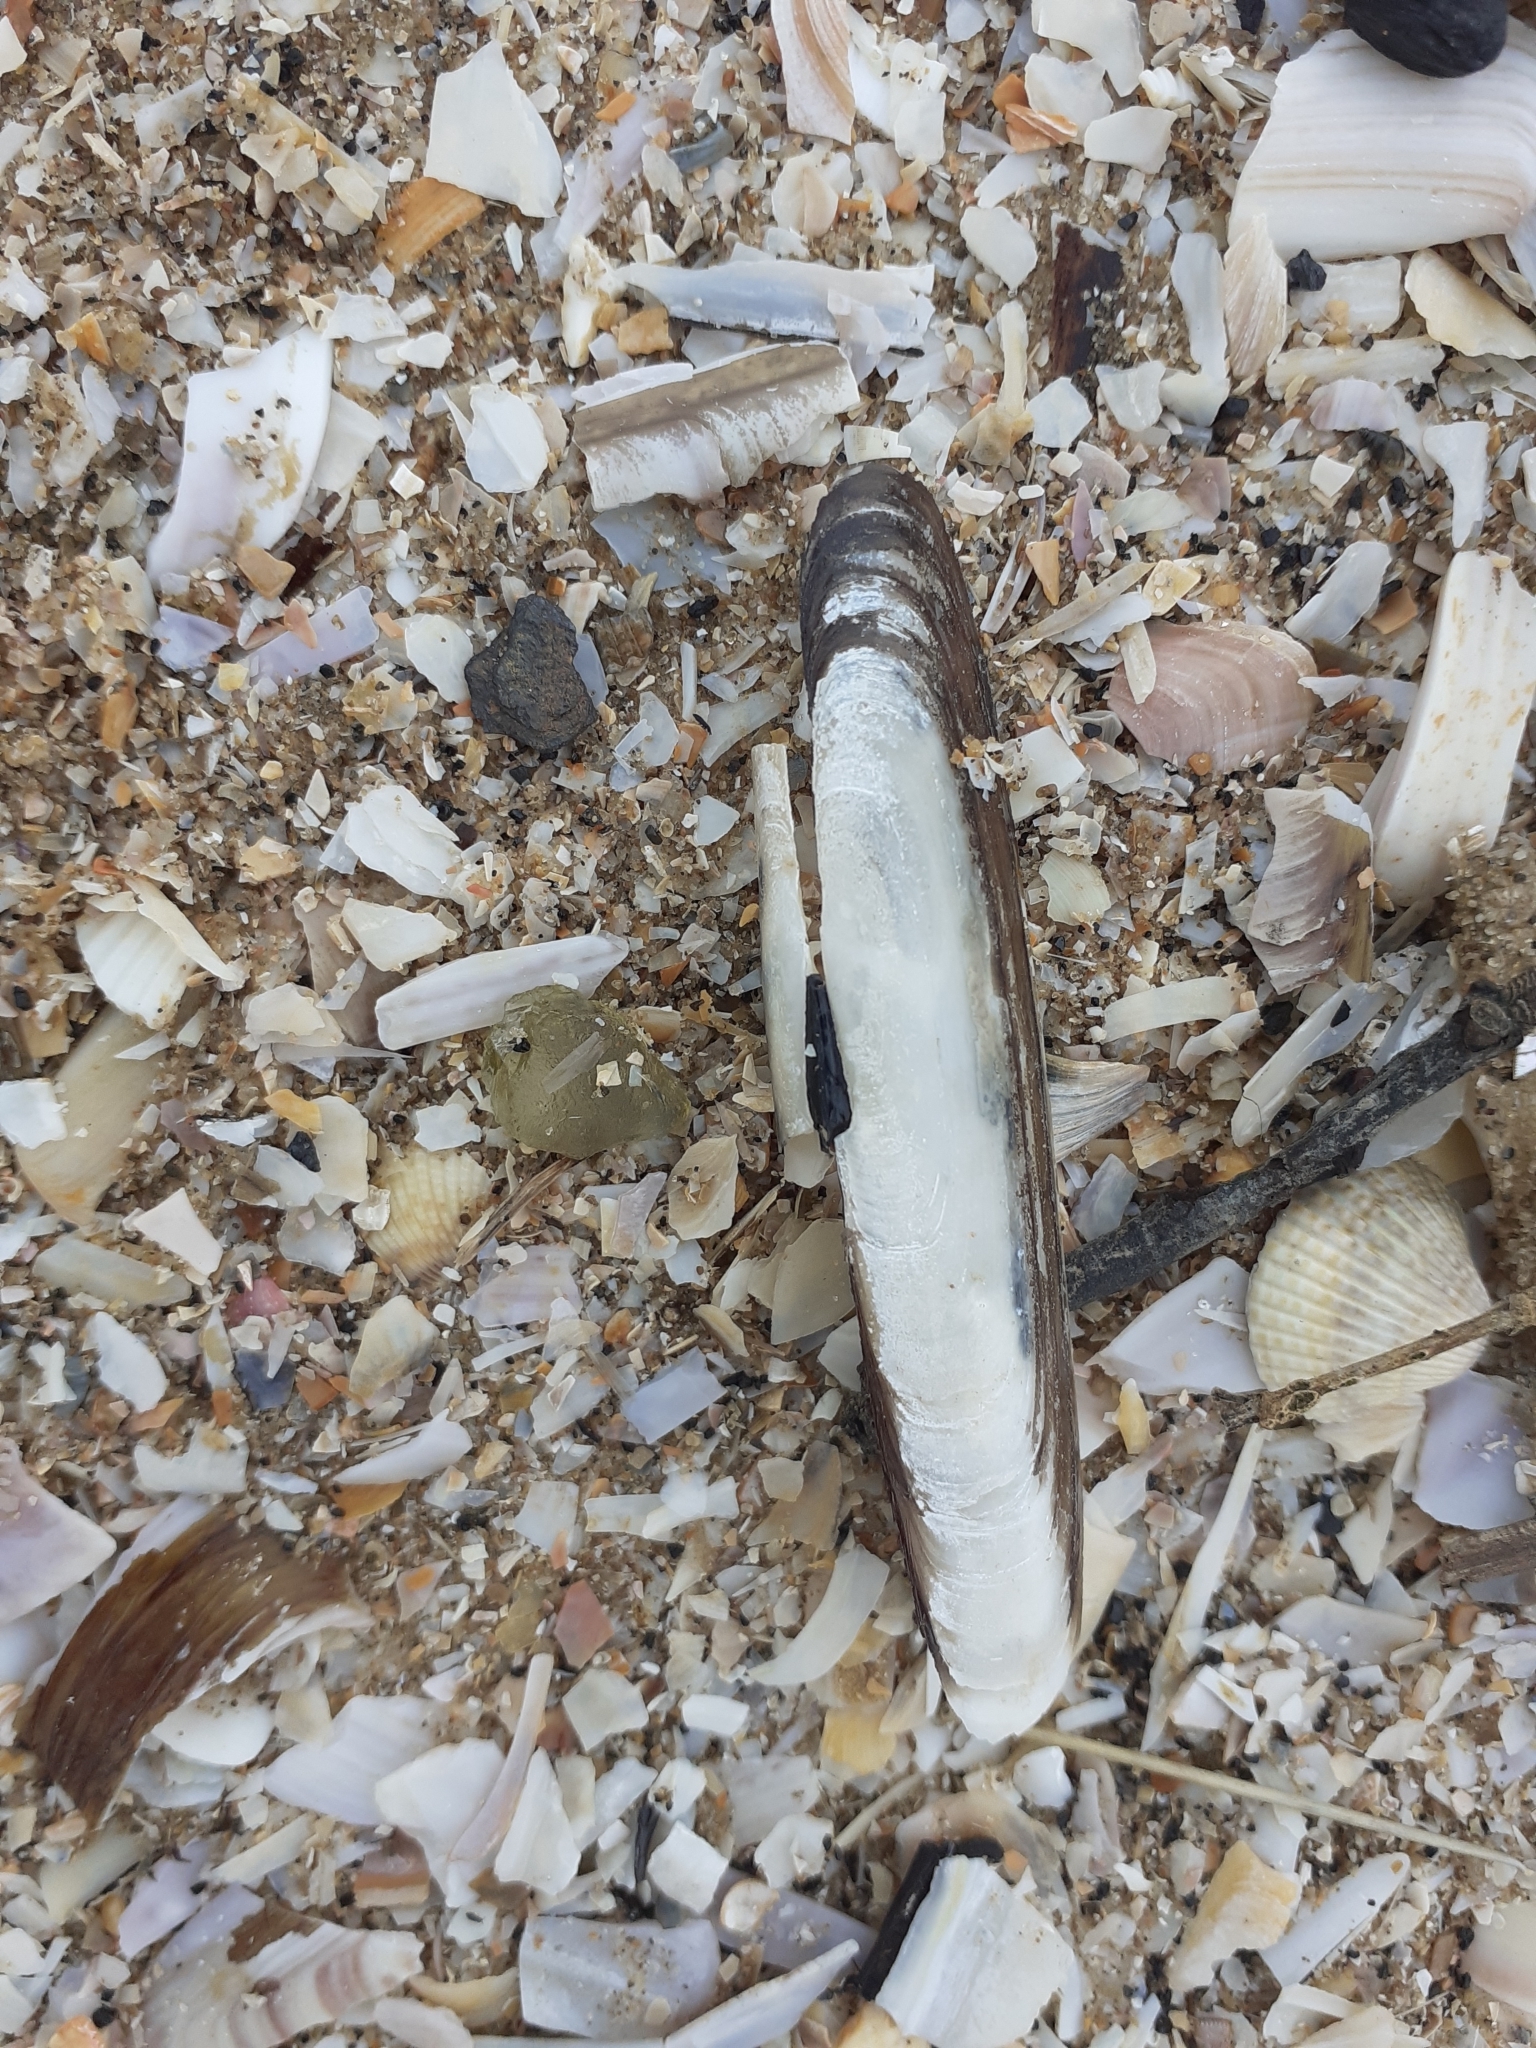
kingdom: Animalia
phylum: Mollusca
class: Bivalvia
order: Adapedonta
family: Pharidae
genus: Pharus
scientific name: Pharus legumen
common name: Bean razor clam
